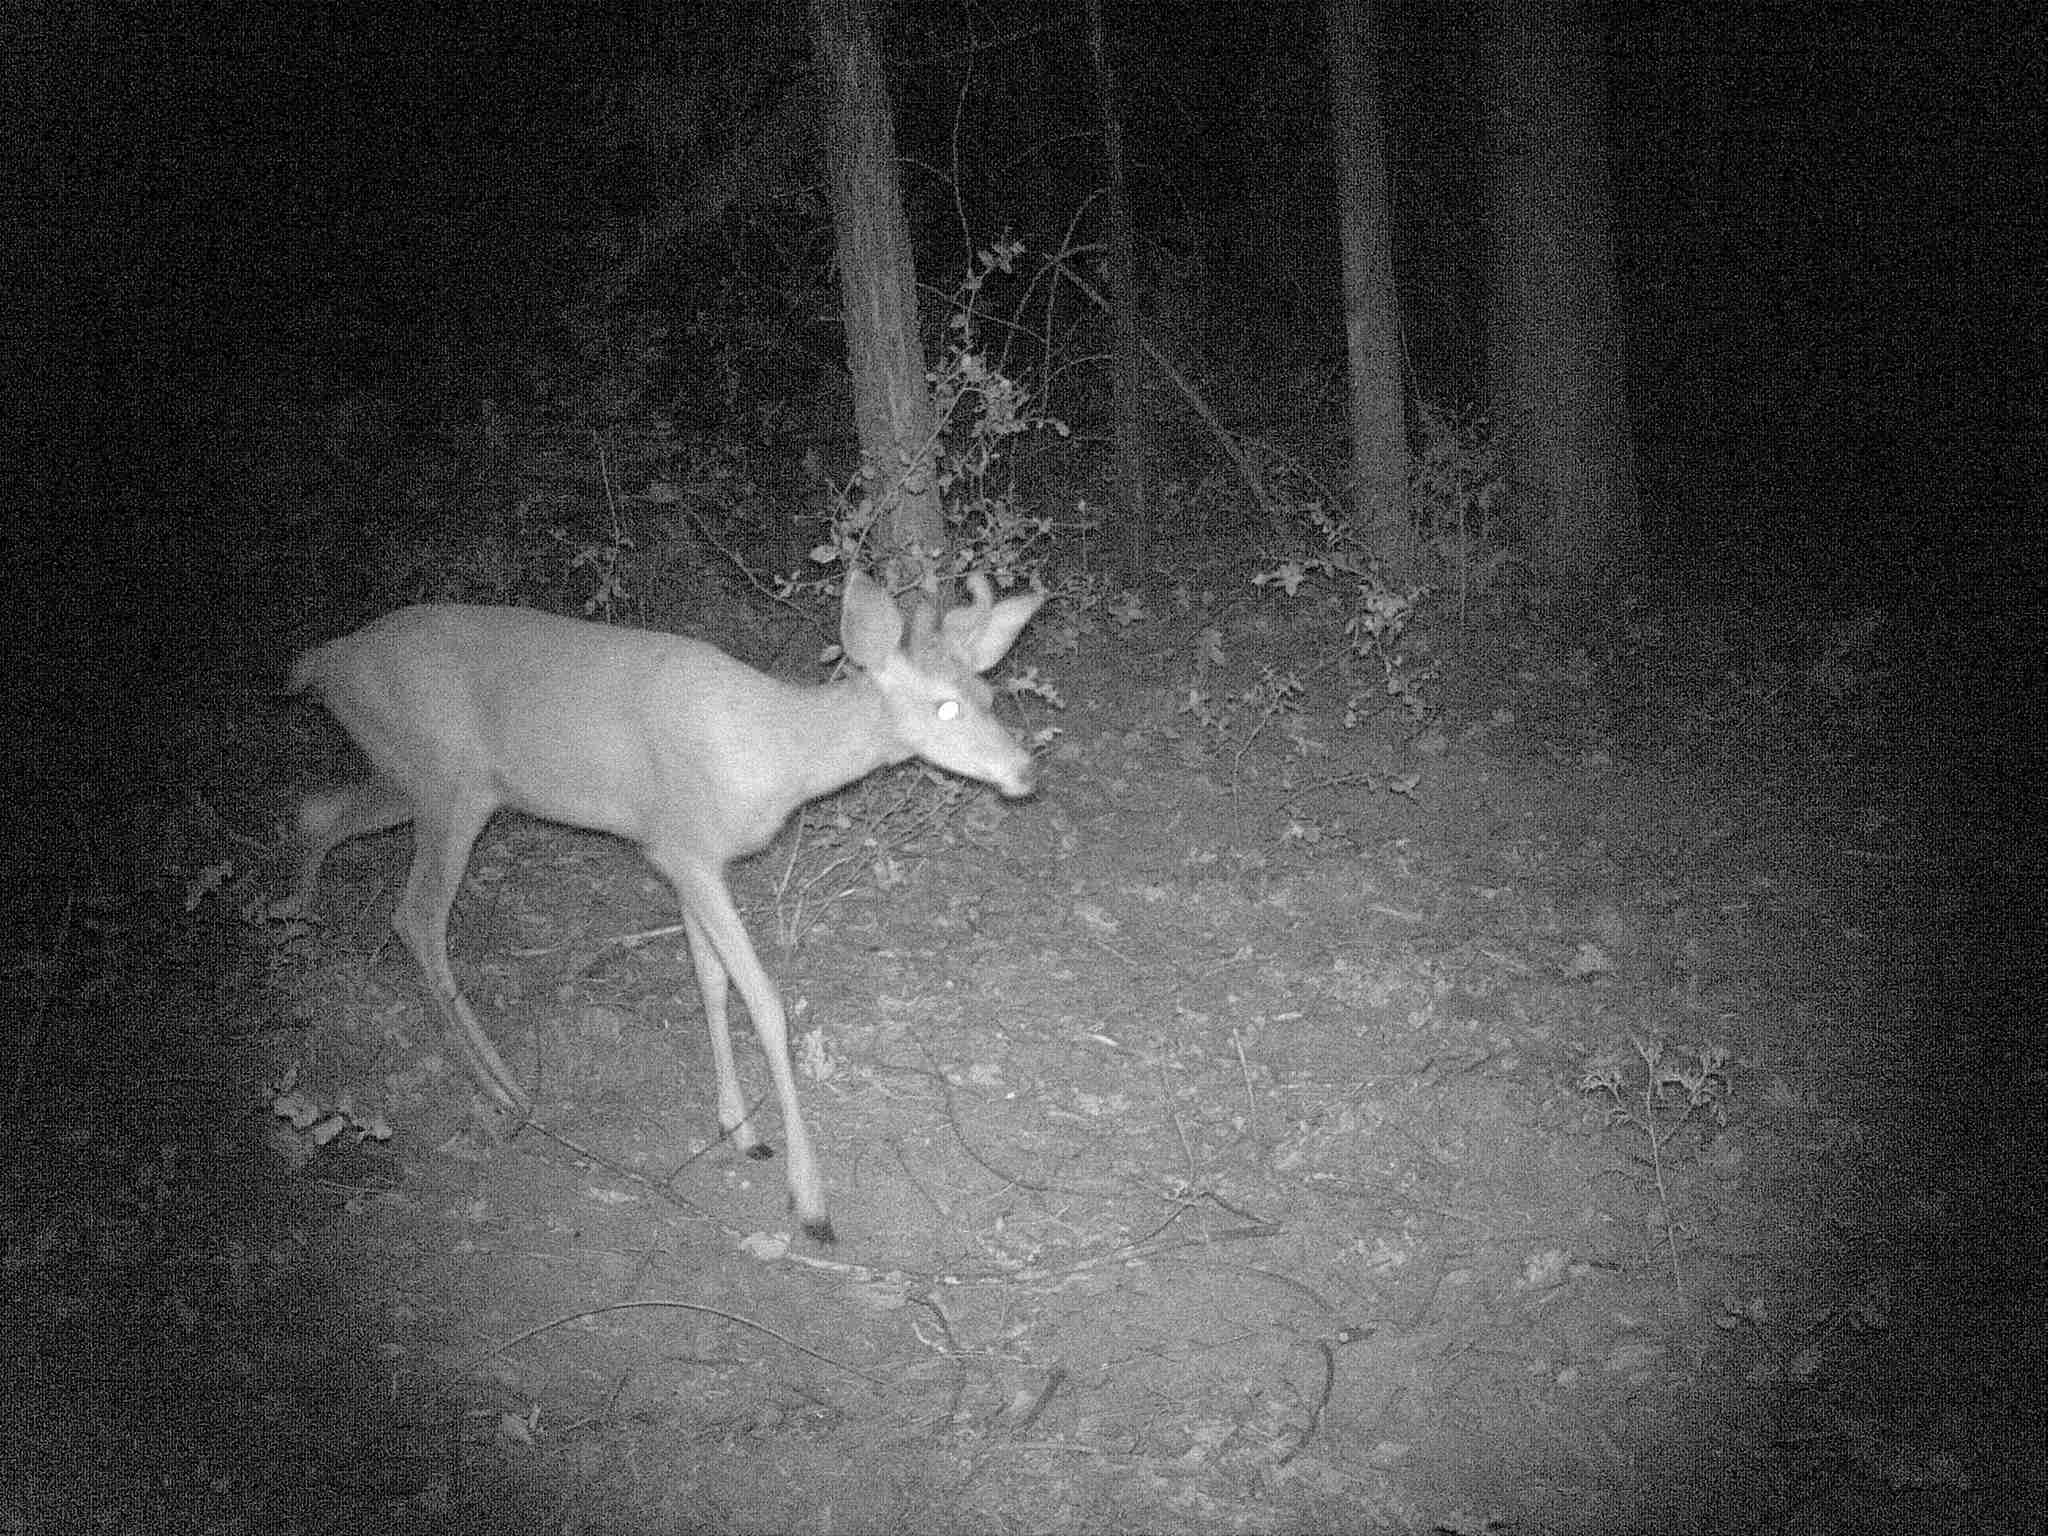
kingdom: Animalia
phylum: Chordata
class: Mammalia
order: Artiodactyla
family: Cervidae
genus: Odocoileus
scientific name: Odocoileus hemionus
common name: Mule deer
